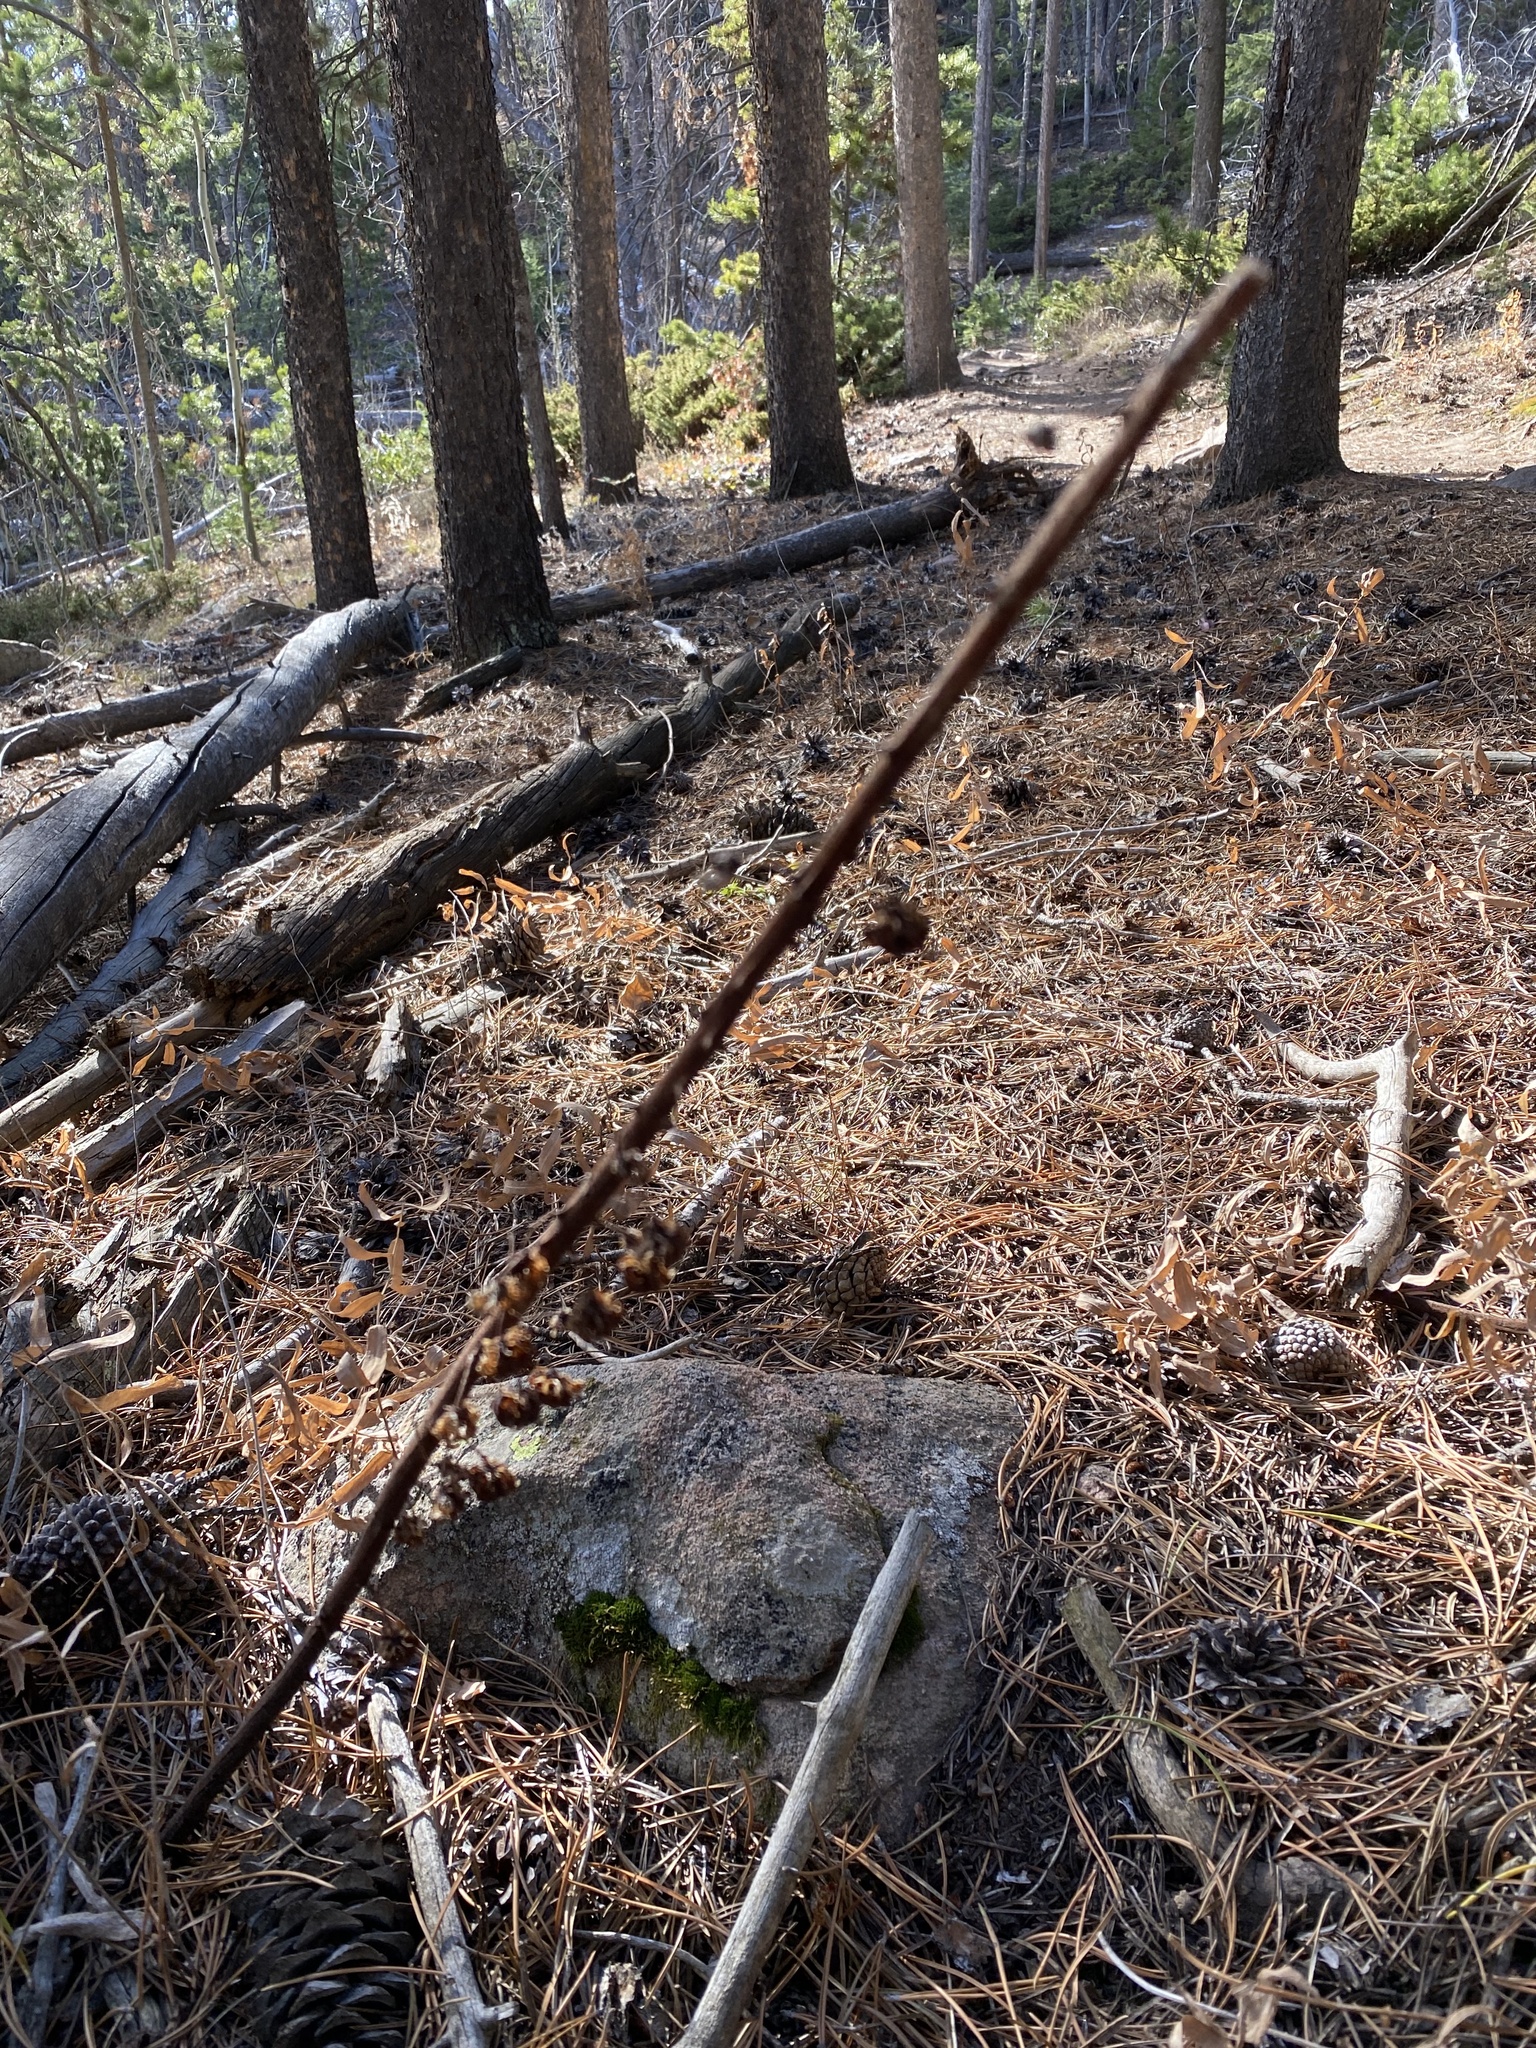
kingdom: Plantae
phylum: Tracheophyta
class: Magnoliopsida
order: Ericales
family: Ericaceae
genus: Pterospora
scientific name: Pterospora andromedea
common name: Giant bird's-nest
